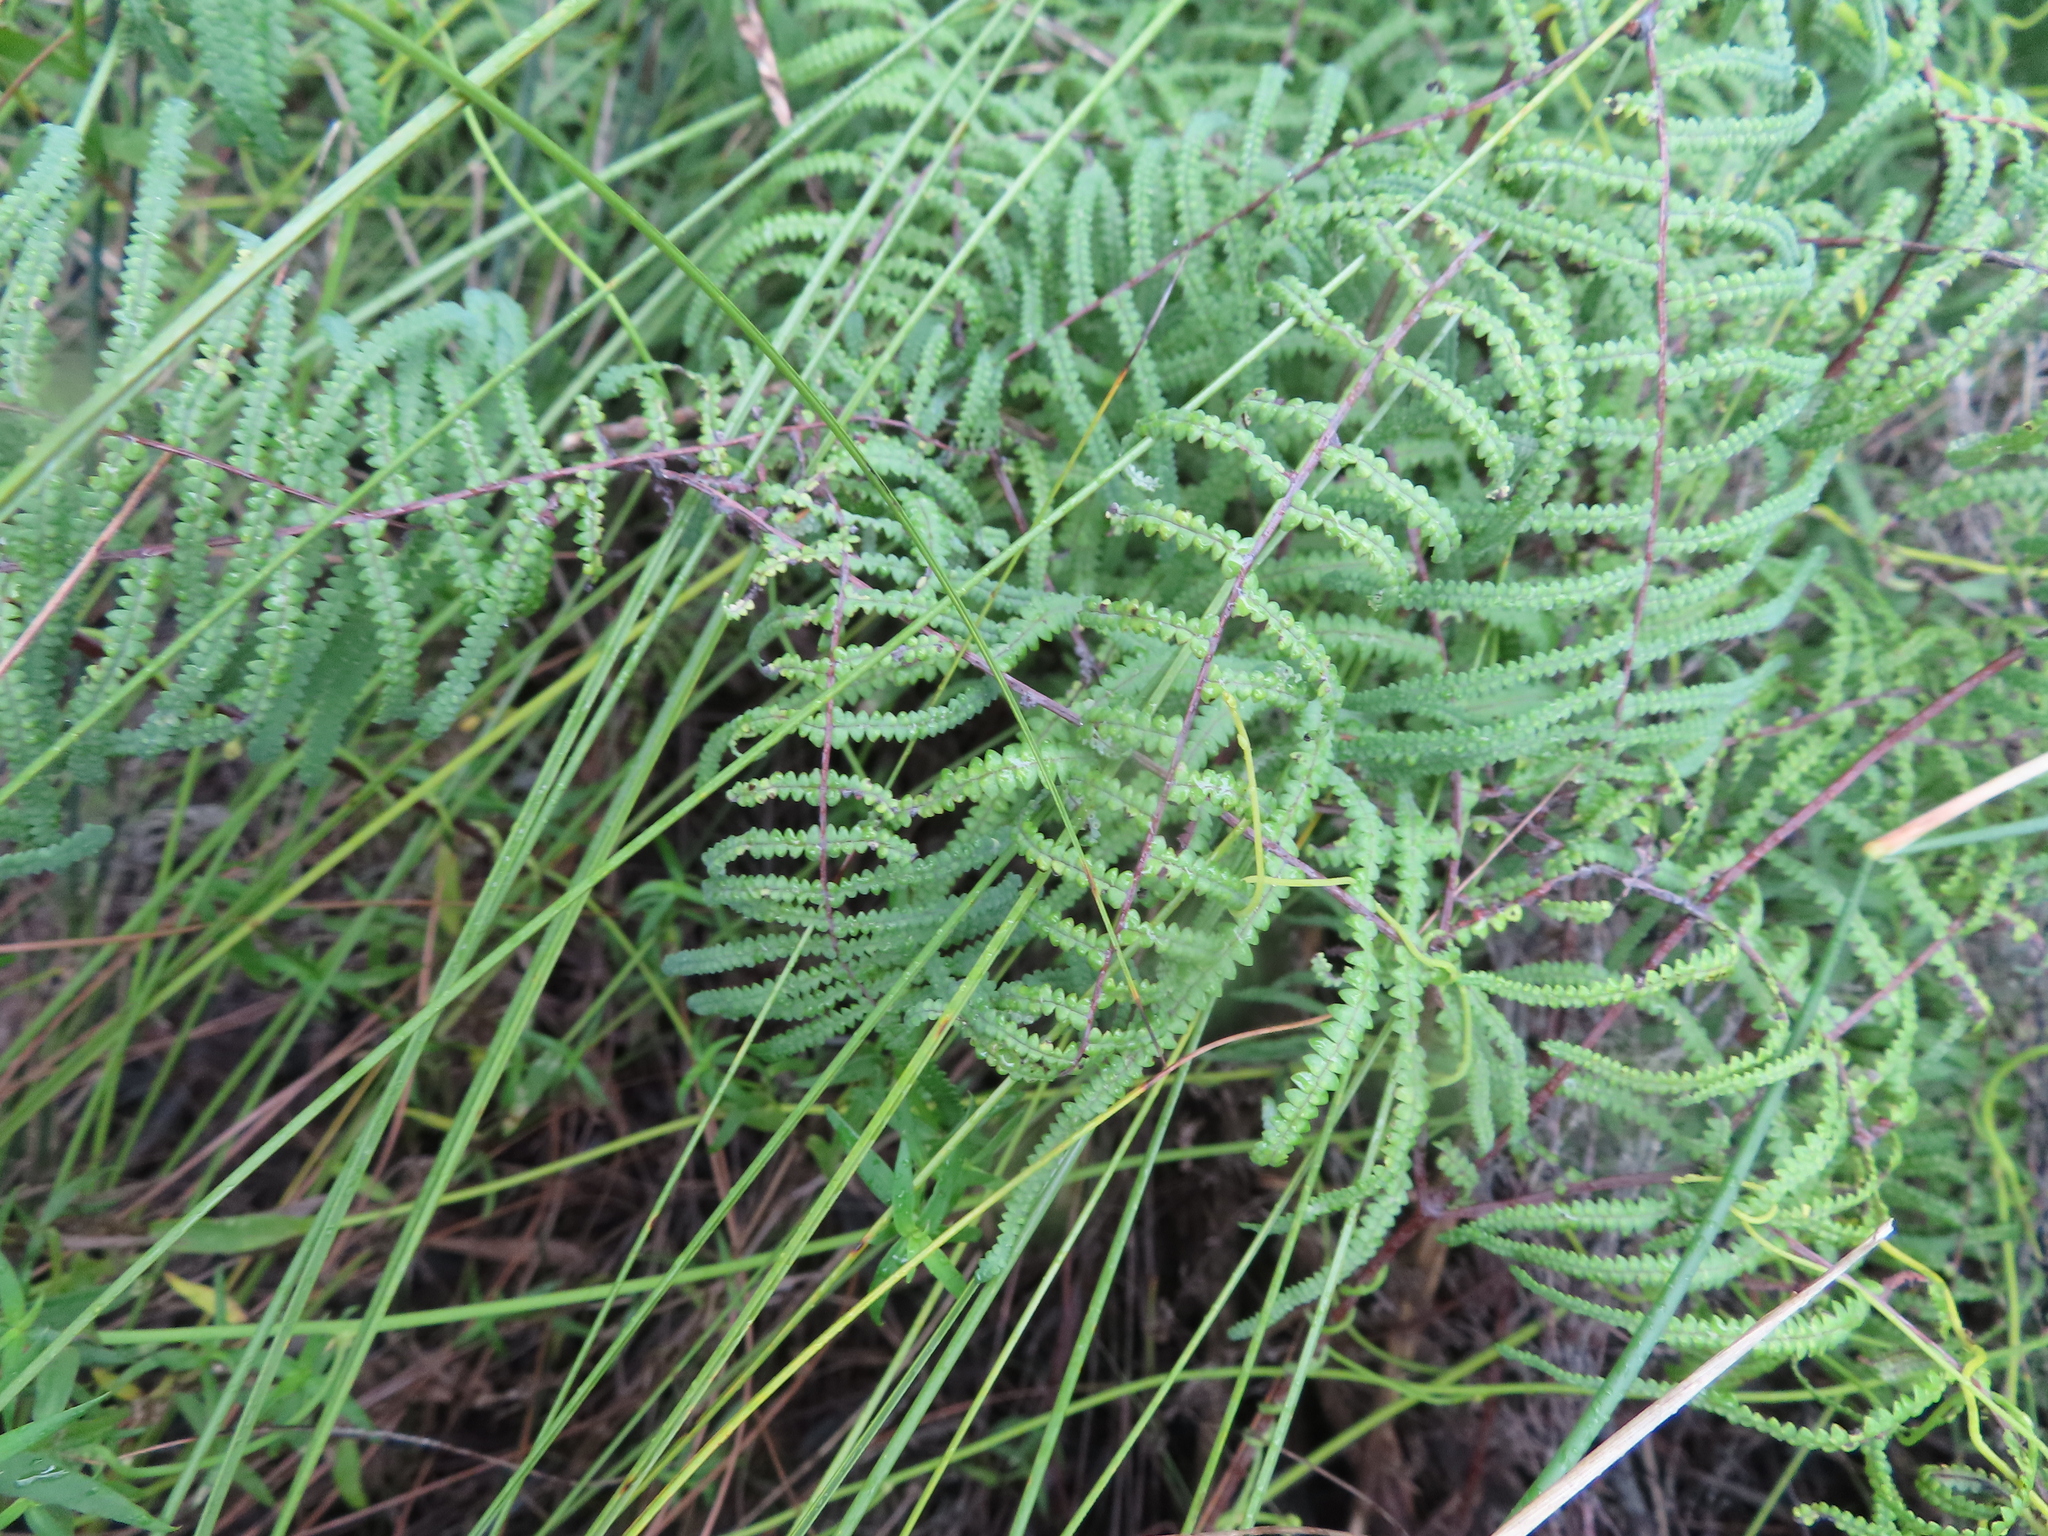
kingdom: Plantae
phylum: Tracheophyta
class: Polypodiopsida
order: Gleicheniales
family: Gleicheniaceae
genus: Gleichenia
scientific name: Gleichenia polypodioides
